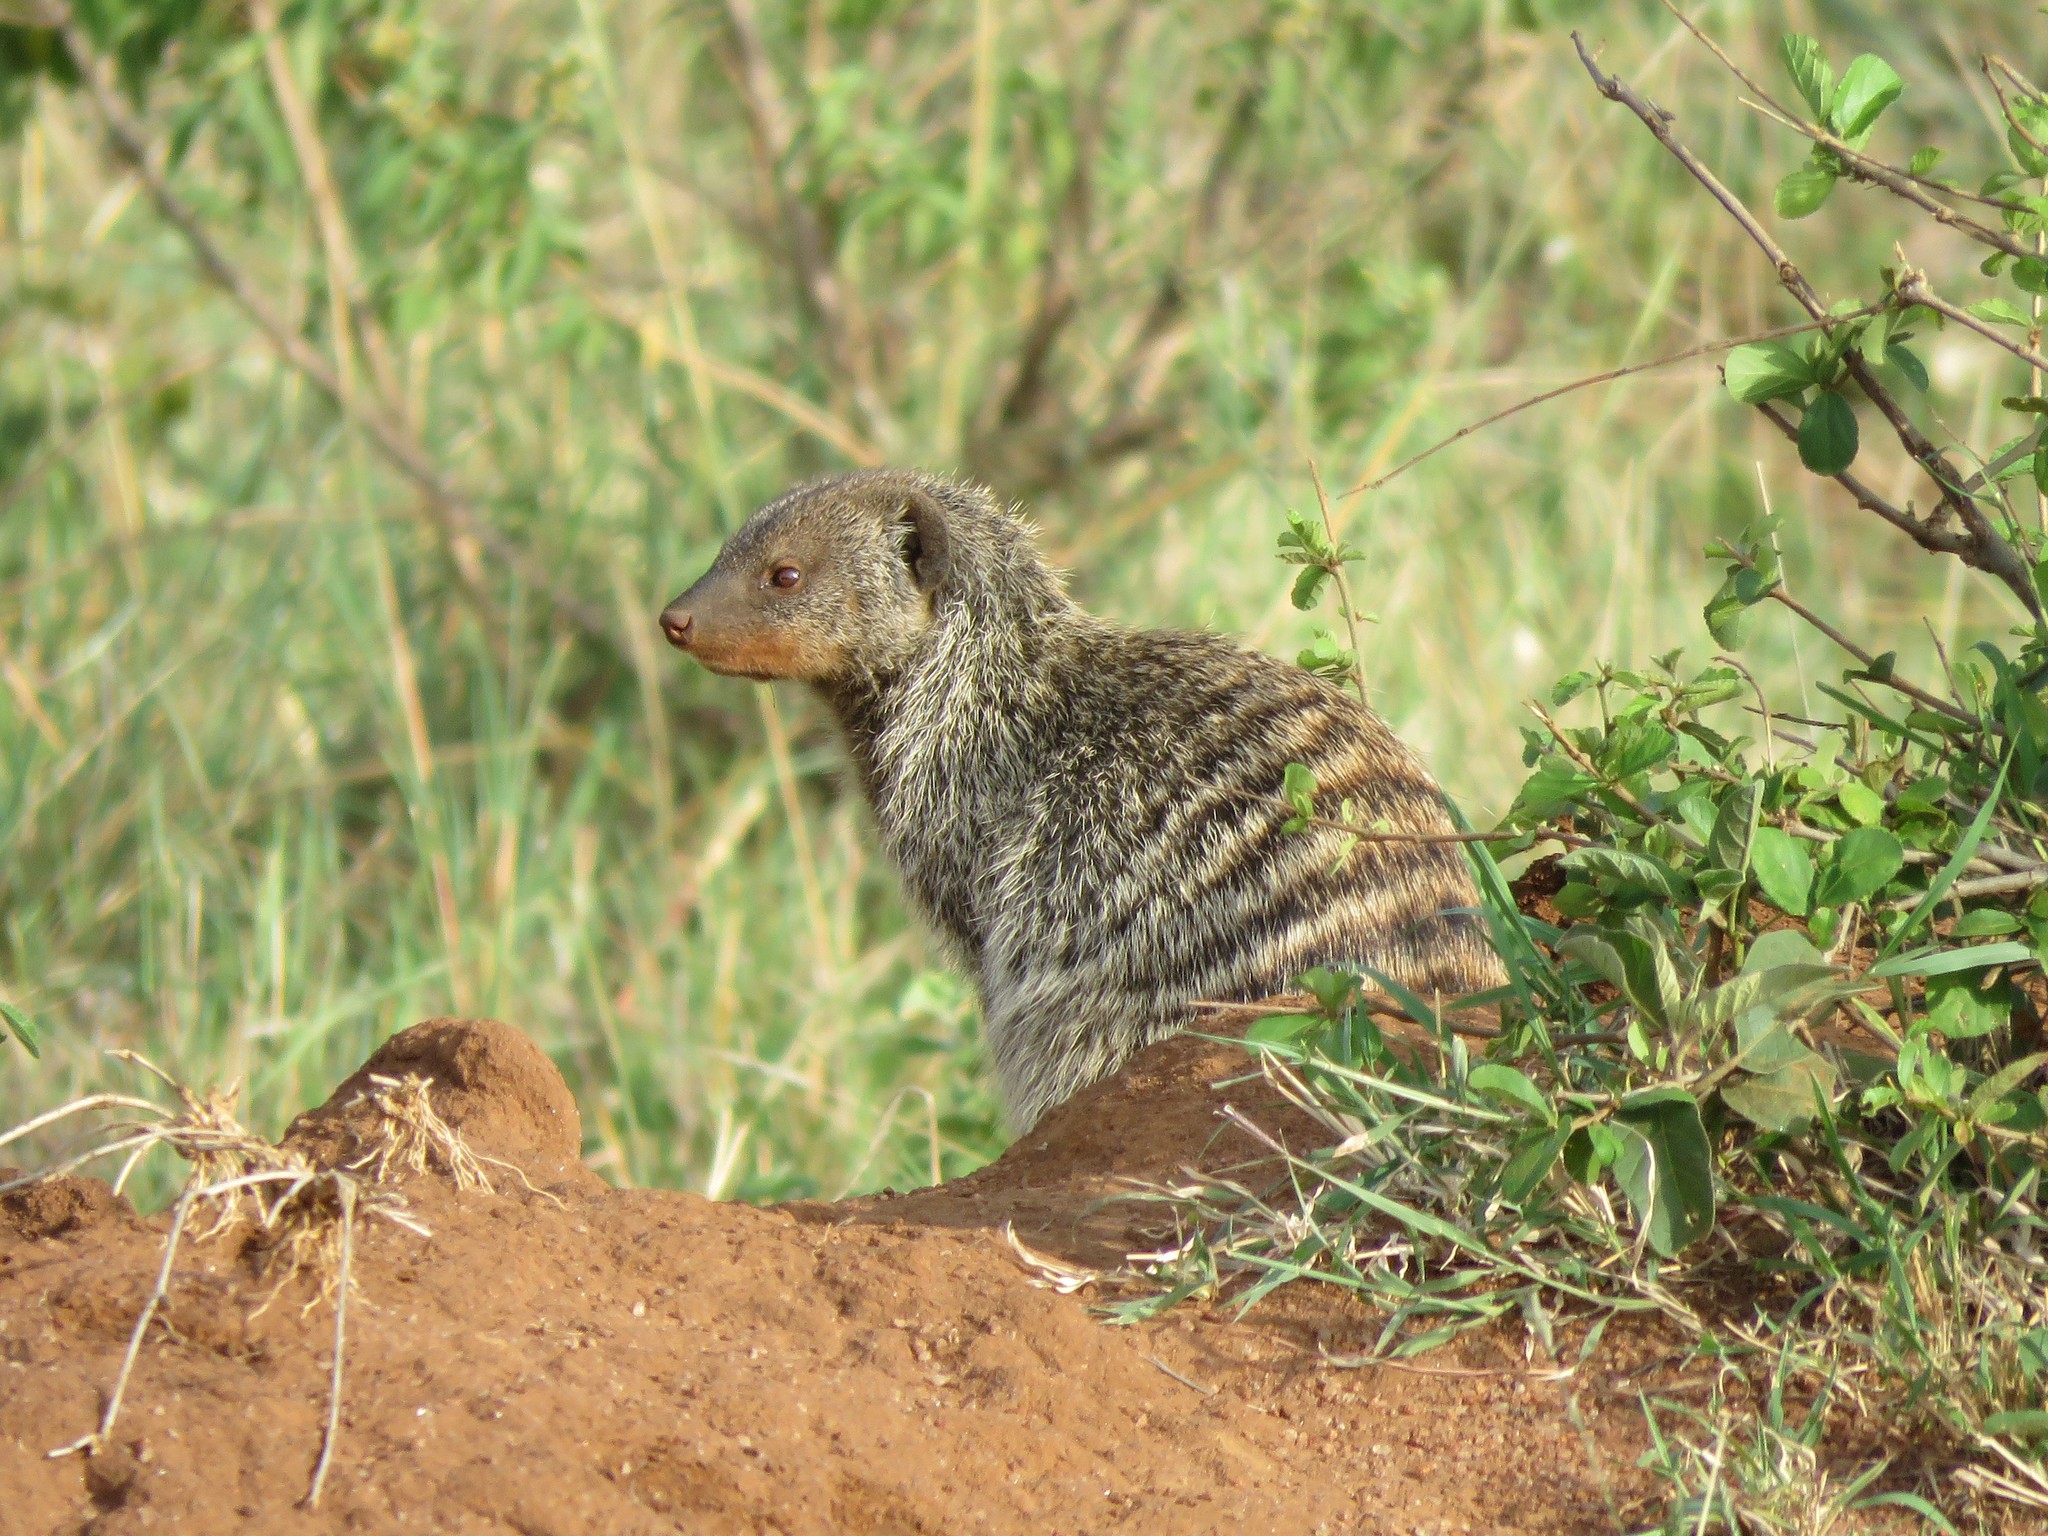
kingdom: Animalia
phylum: Chordata
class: Mammalia
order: Carnivora
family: Herpestidae
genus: Mungos
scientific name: Mungos mungo
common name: Banded mongoose
